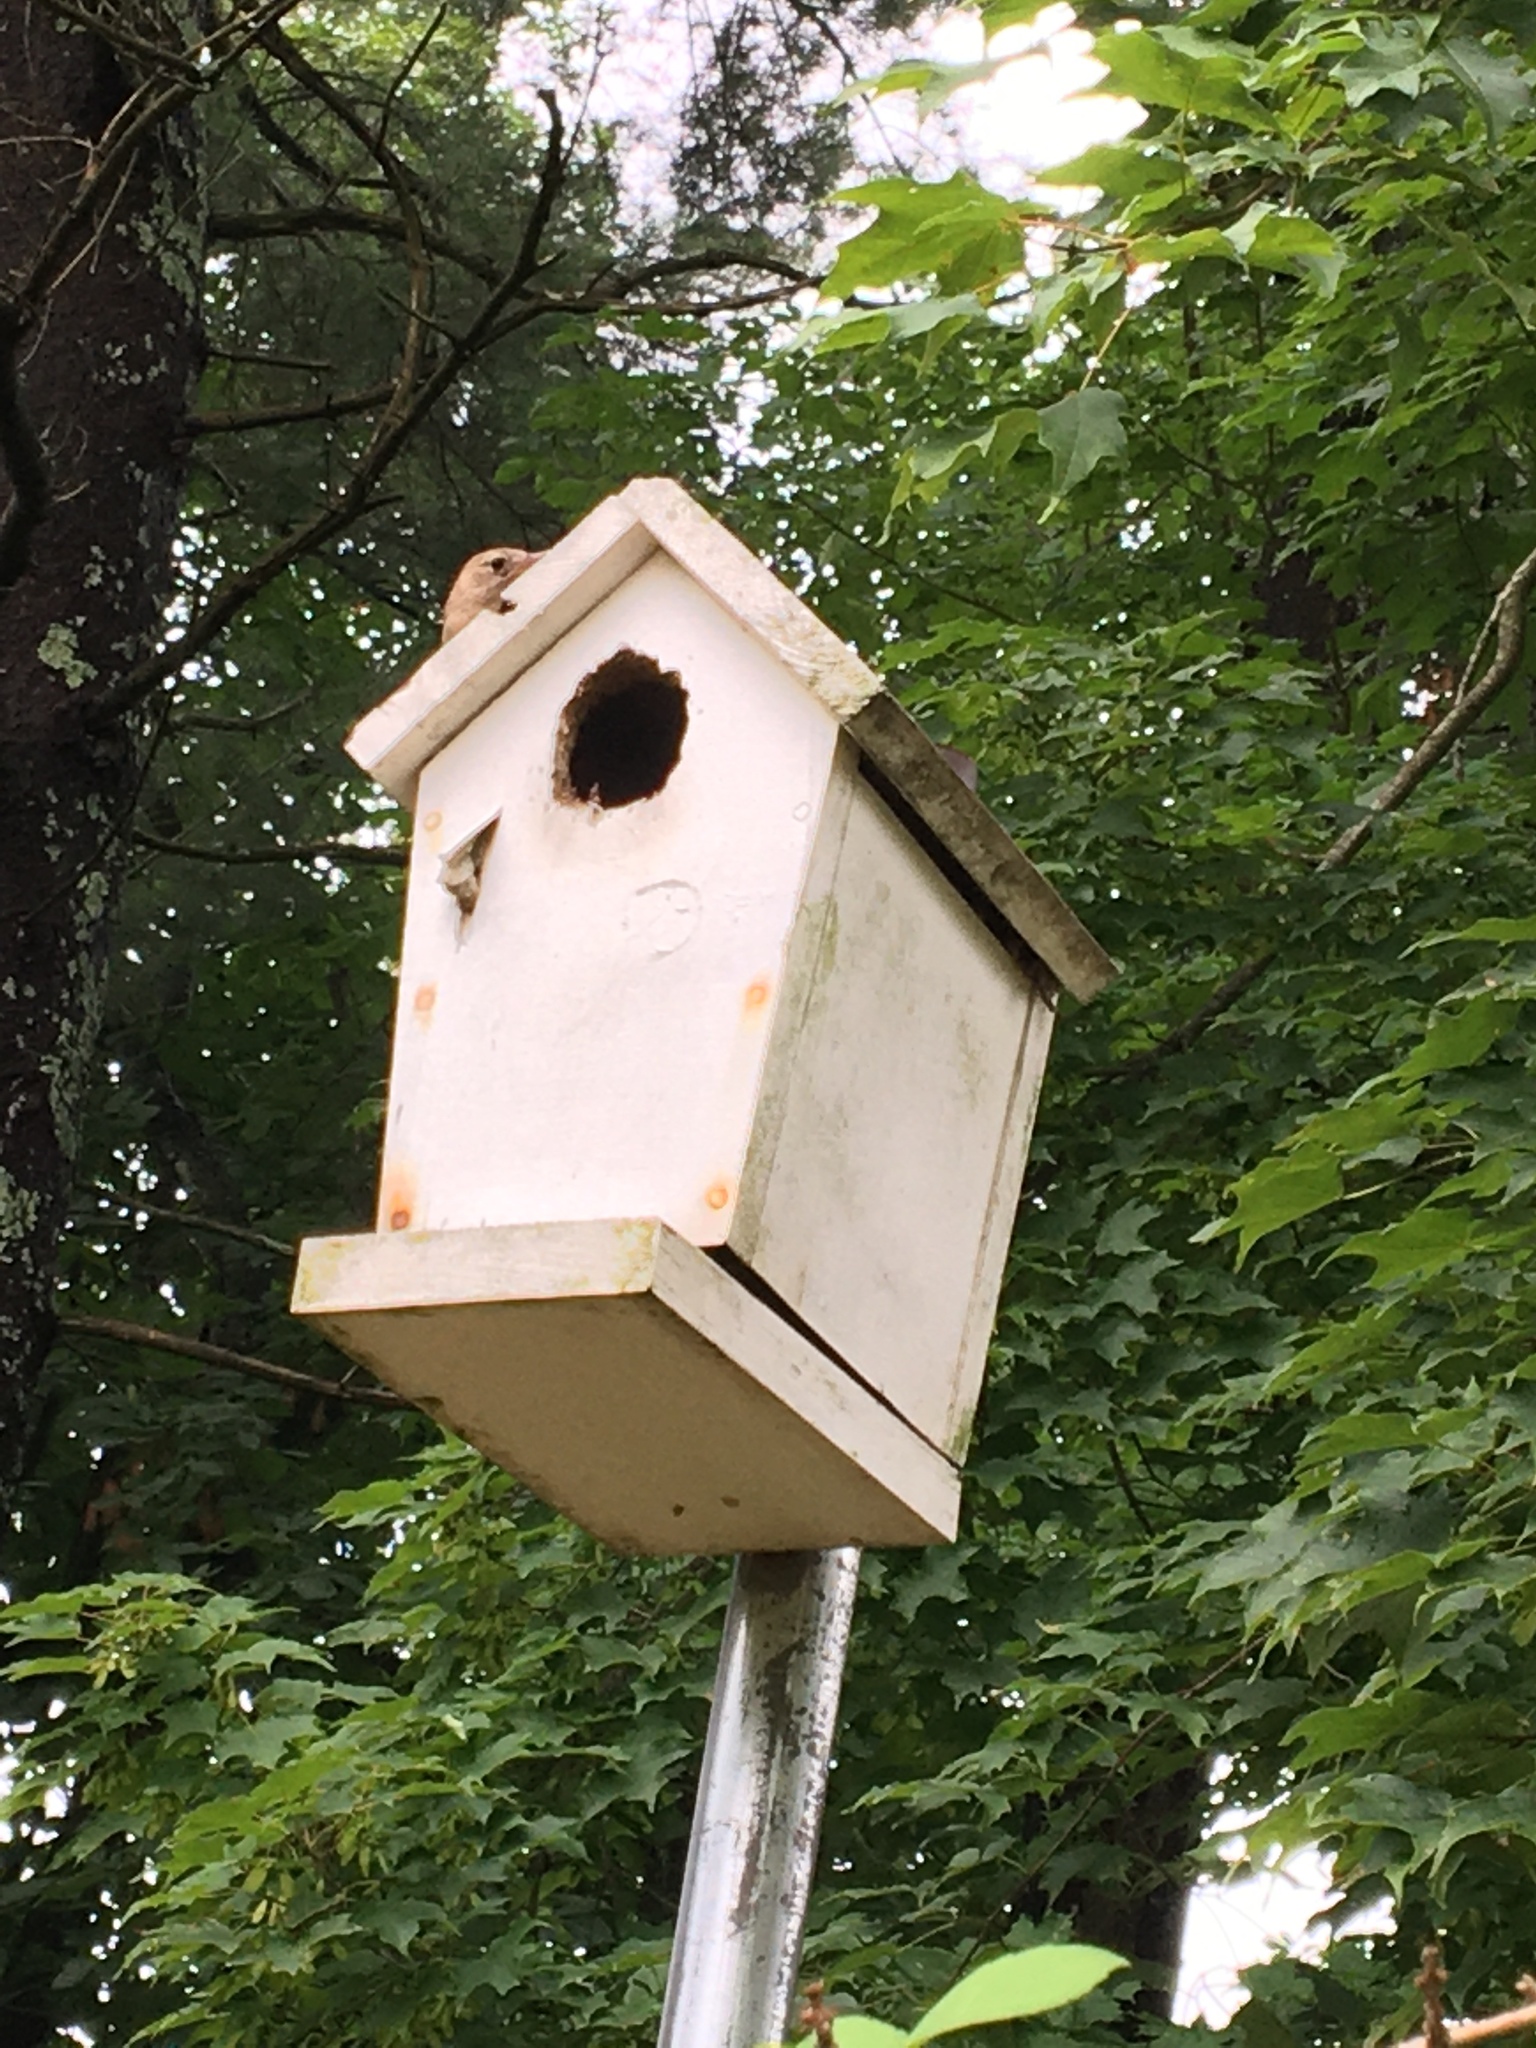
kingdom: Animalia
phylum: Chordata
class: Aves
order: Passeriformes
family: Troglodytidae
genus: Troglodytes
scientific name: Troglodytes aedon
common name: House wren
